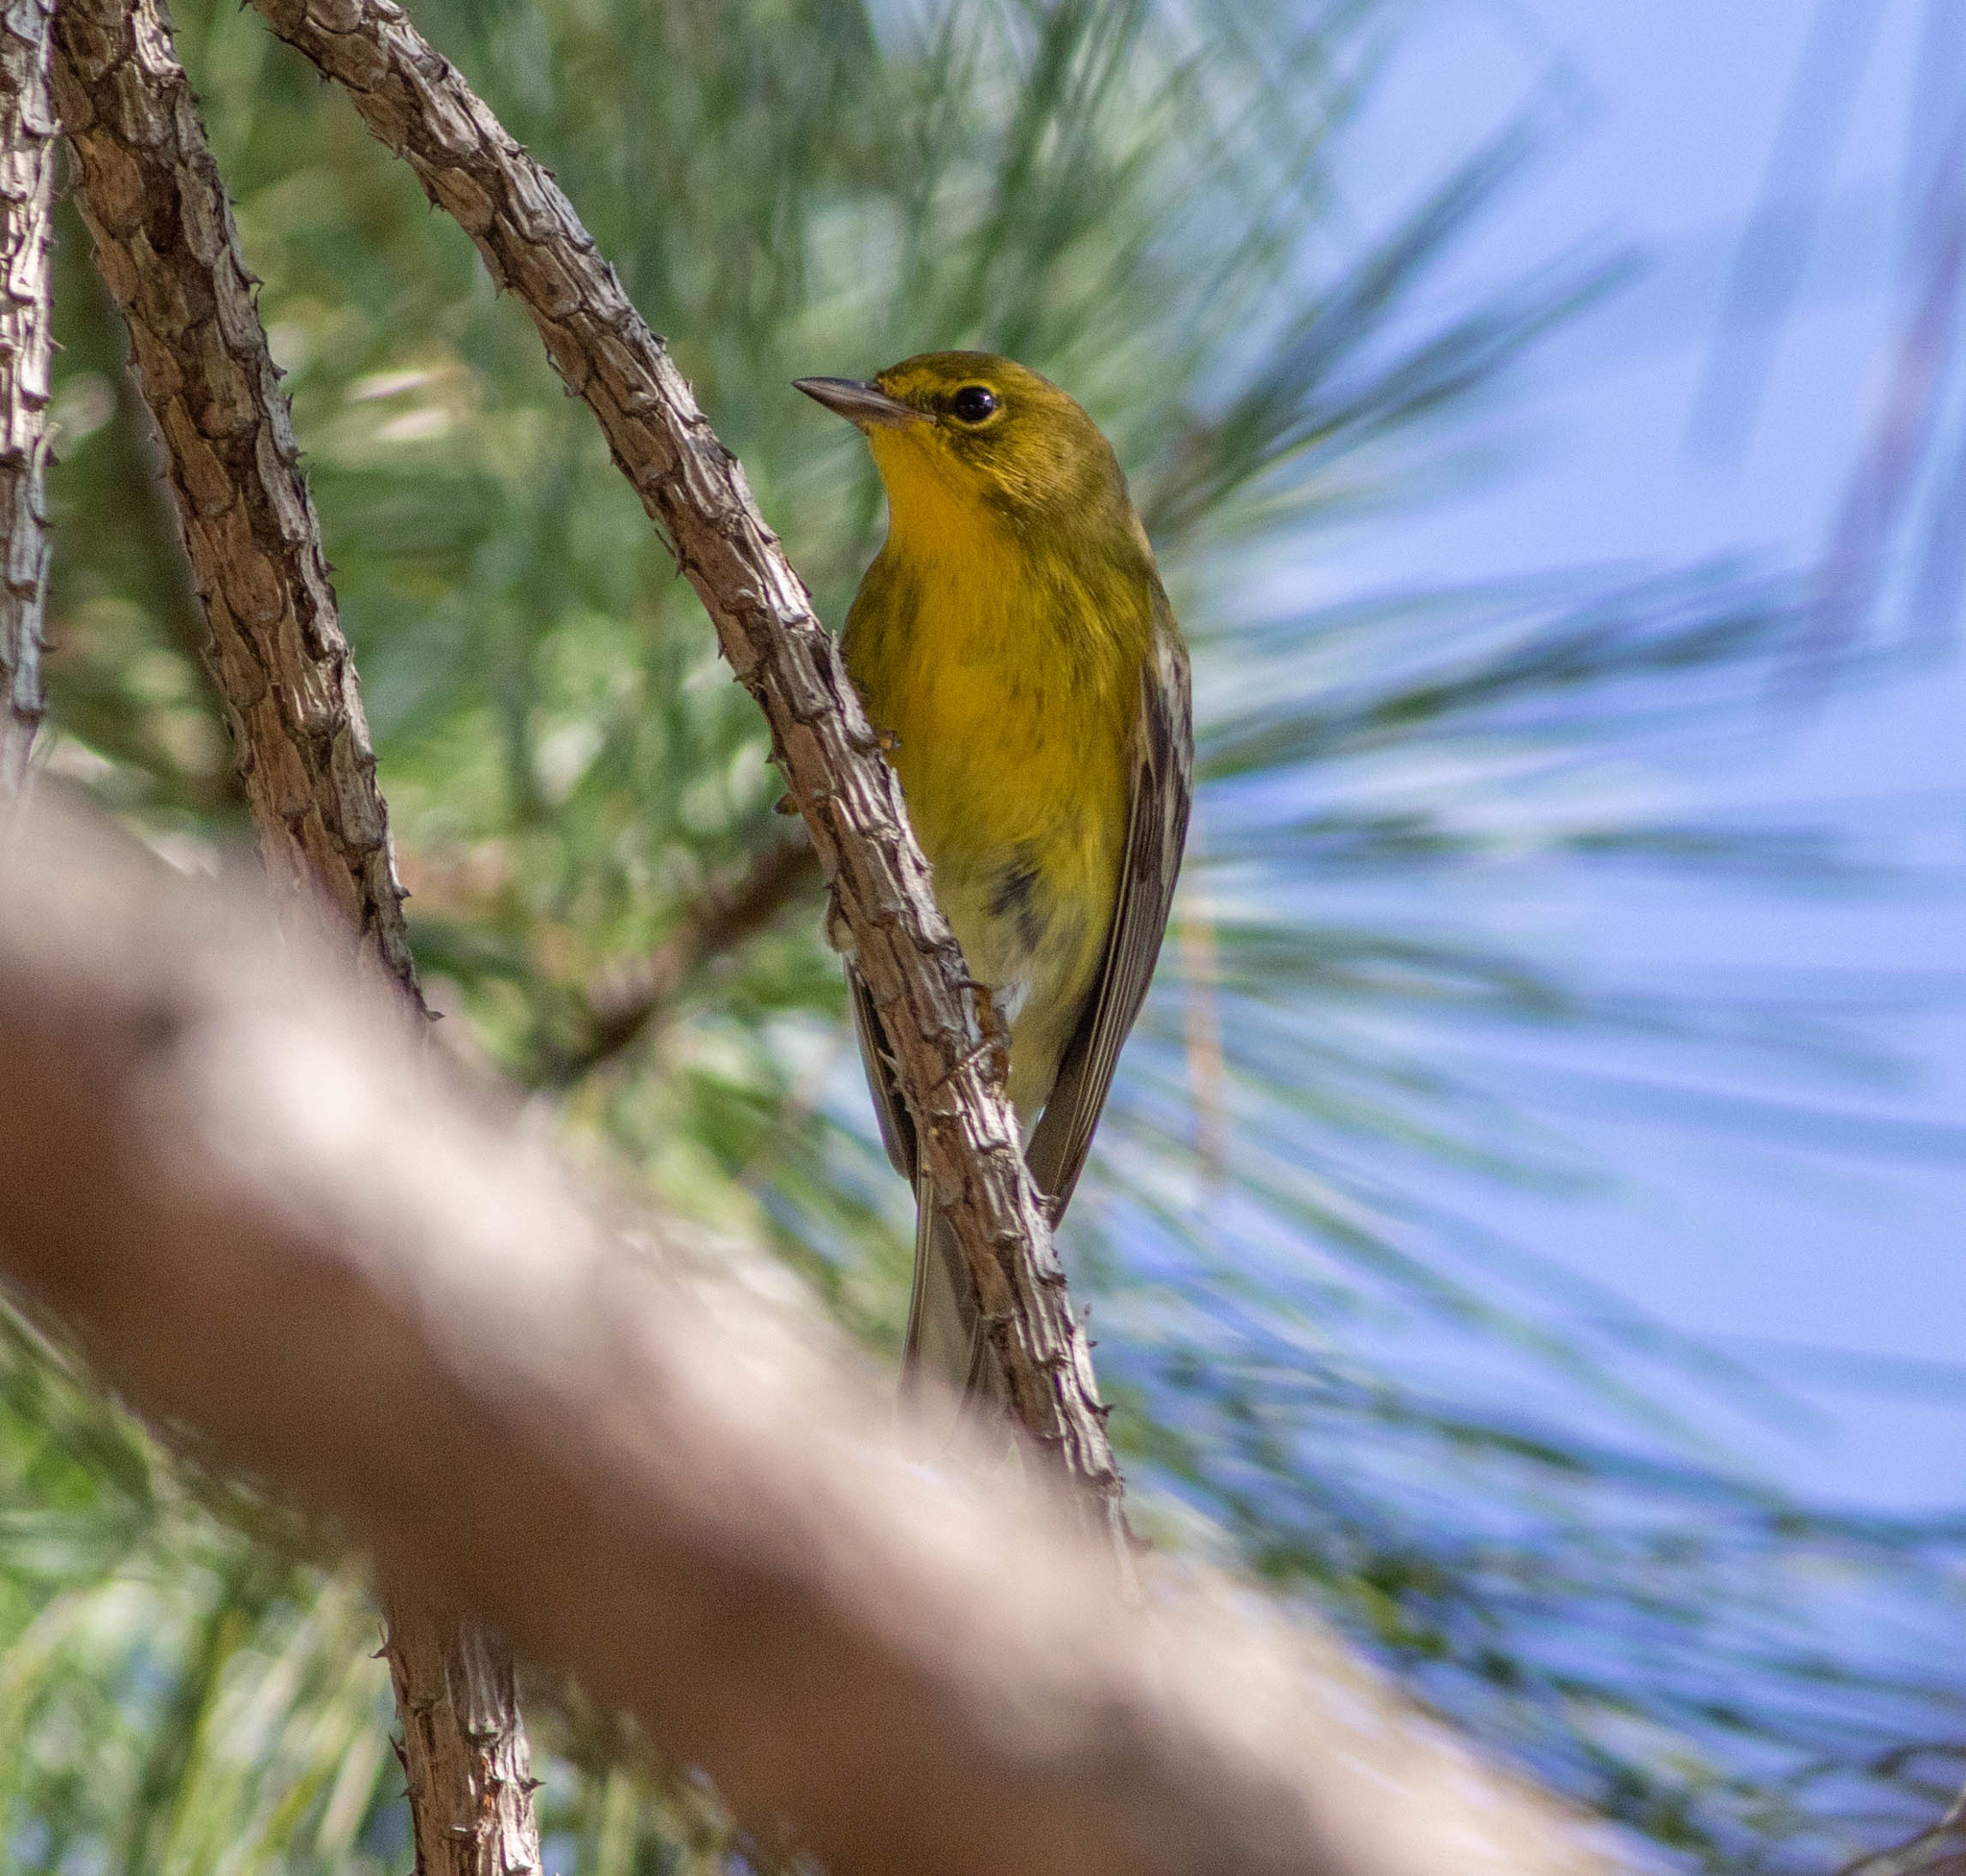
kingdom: Animalia
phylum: Chordata
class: Aves
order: Passeriformes
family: Parulidae
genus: Setophaga
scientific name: Setophaga pinus
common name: Pine warbler
